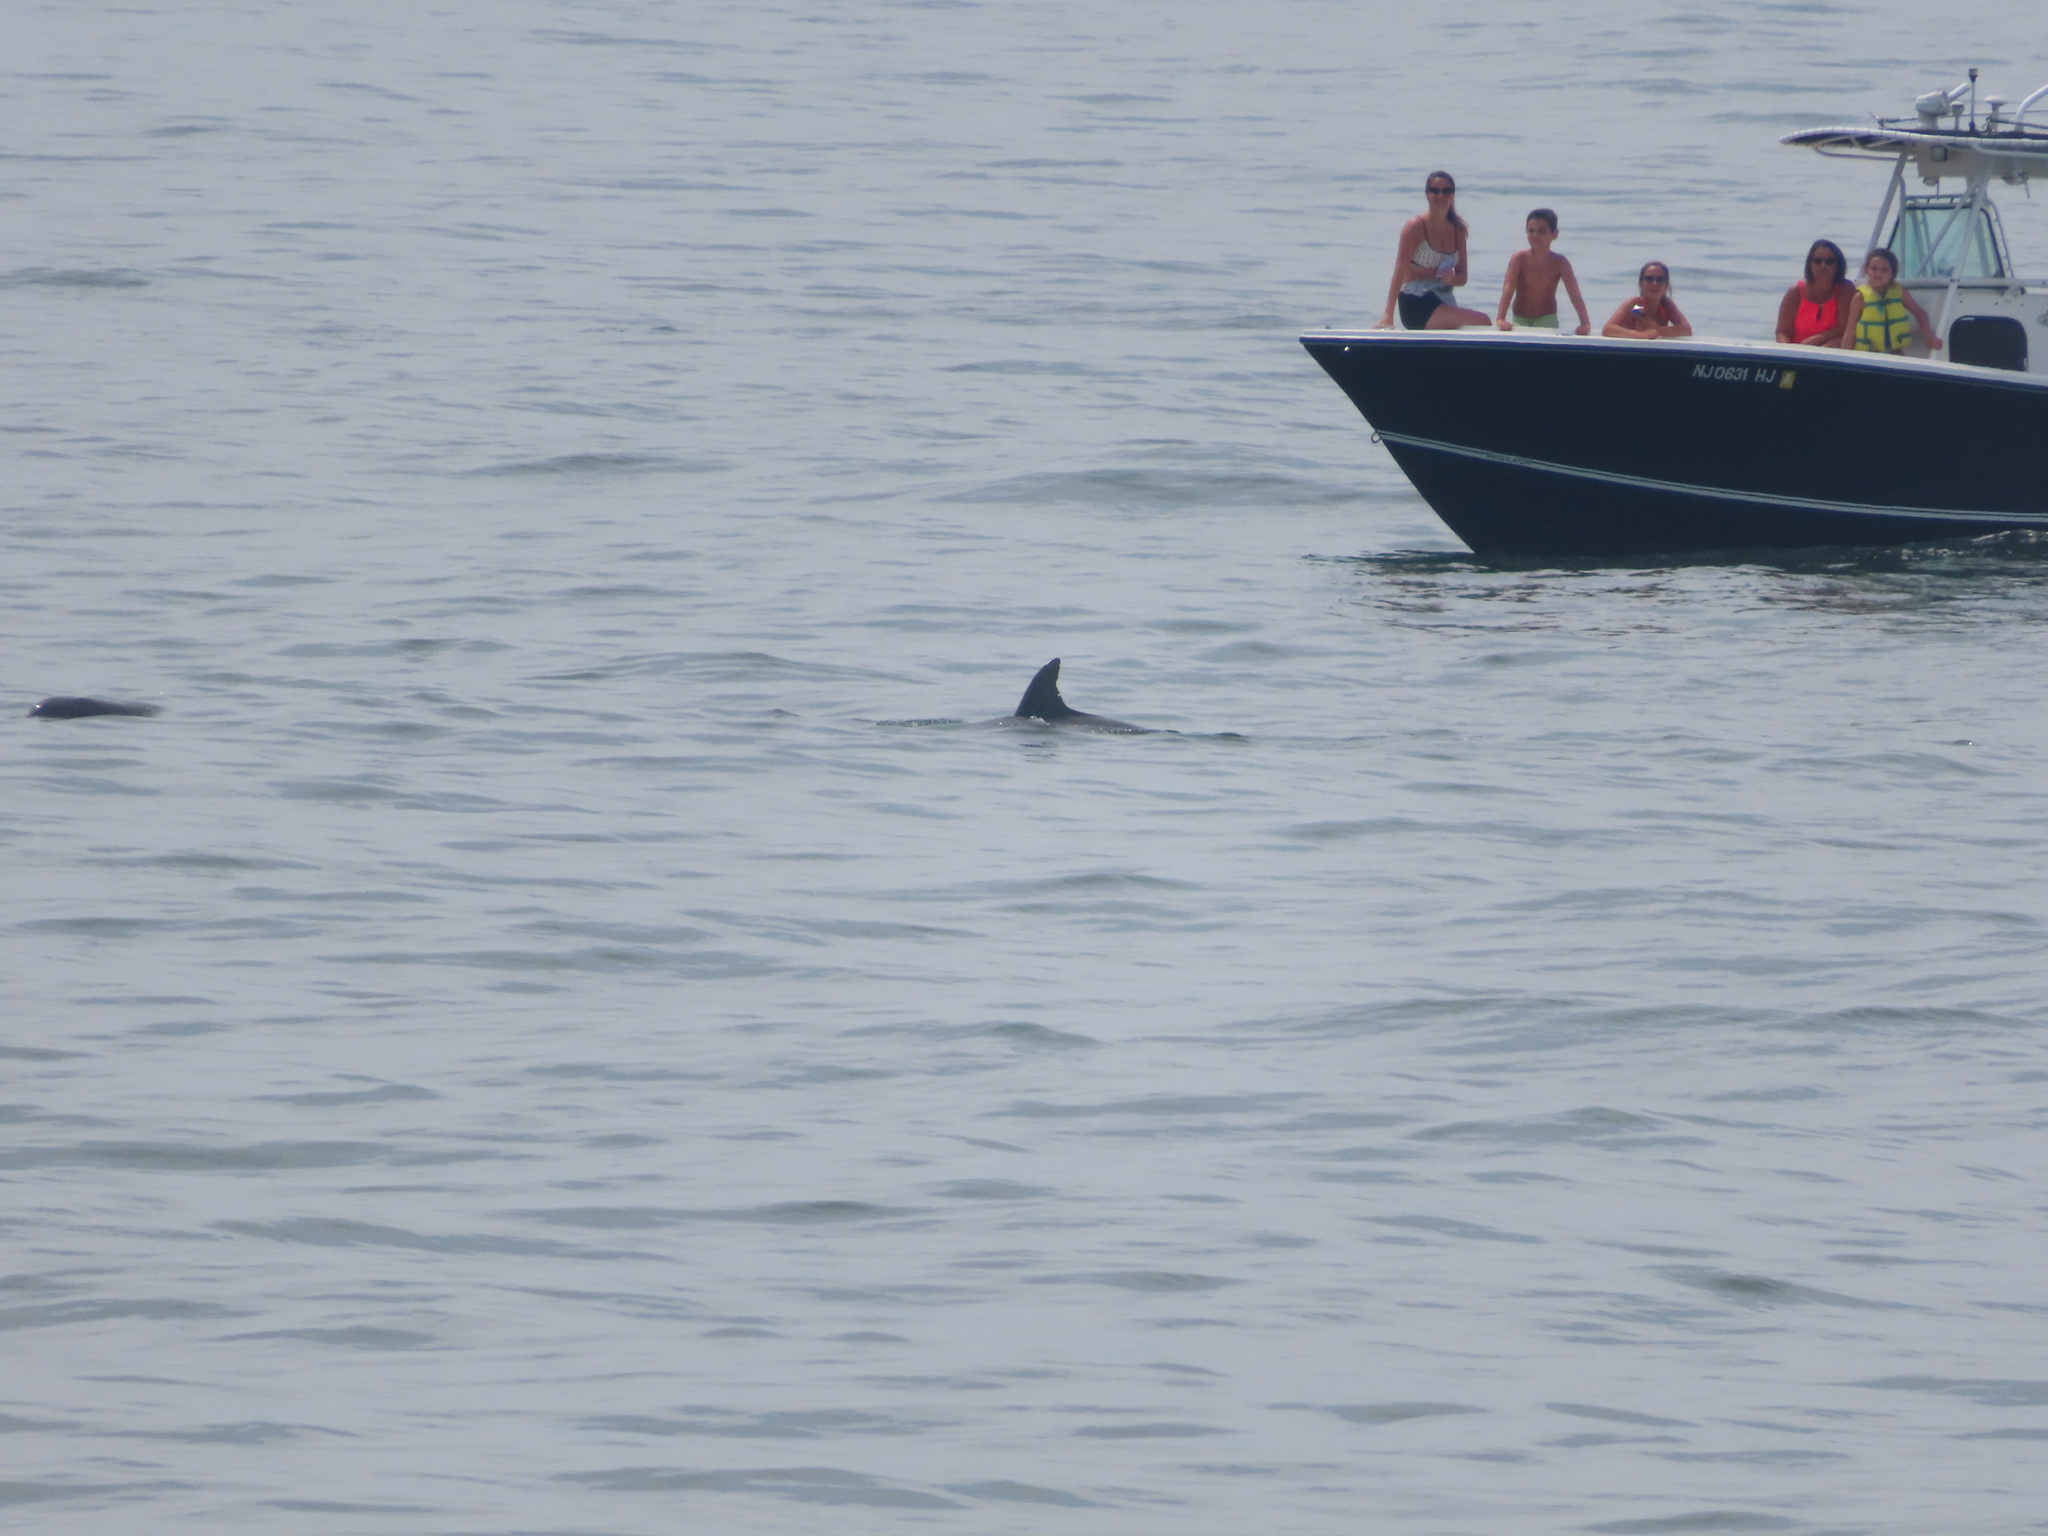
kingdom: Animalia
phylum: Chordata
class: Mammalia
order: Cetacea
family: Delphinidae
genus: Tursiops
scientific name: Tursiops truncatus
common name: Bottlenose dolphin
